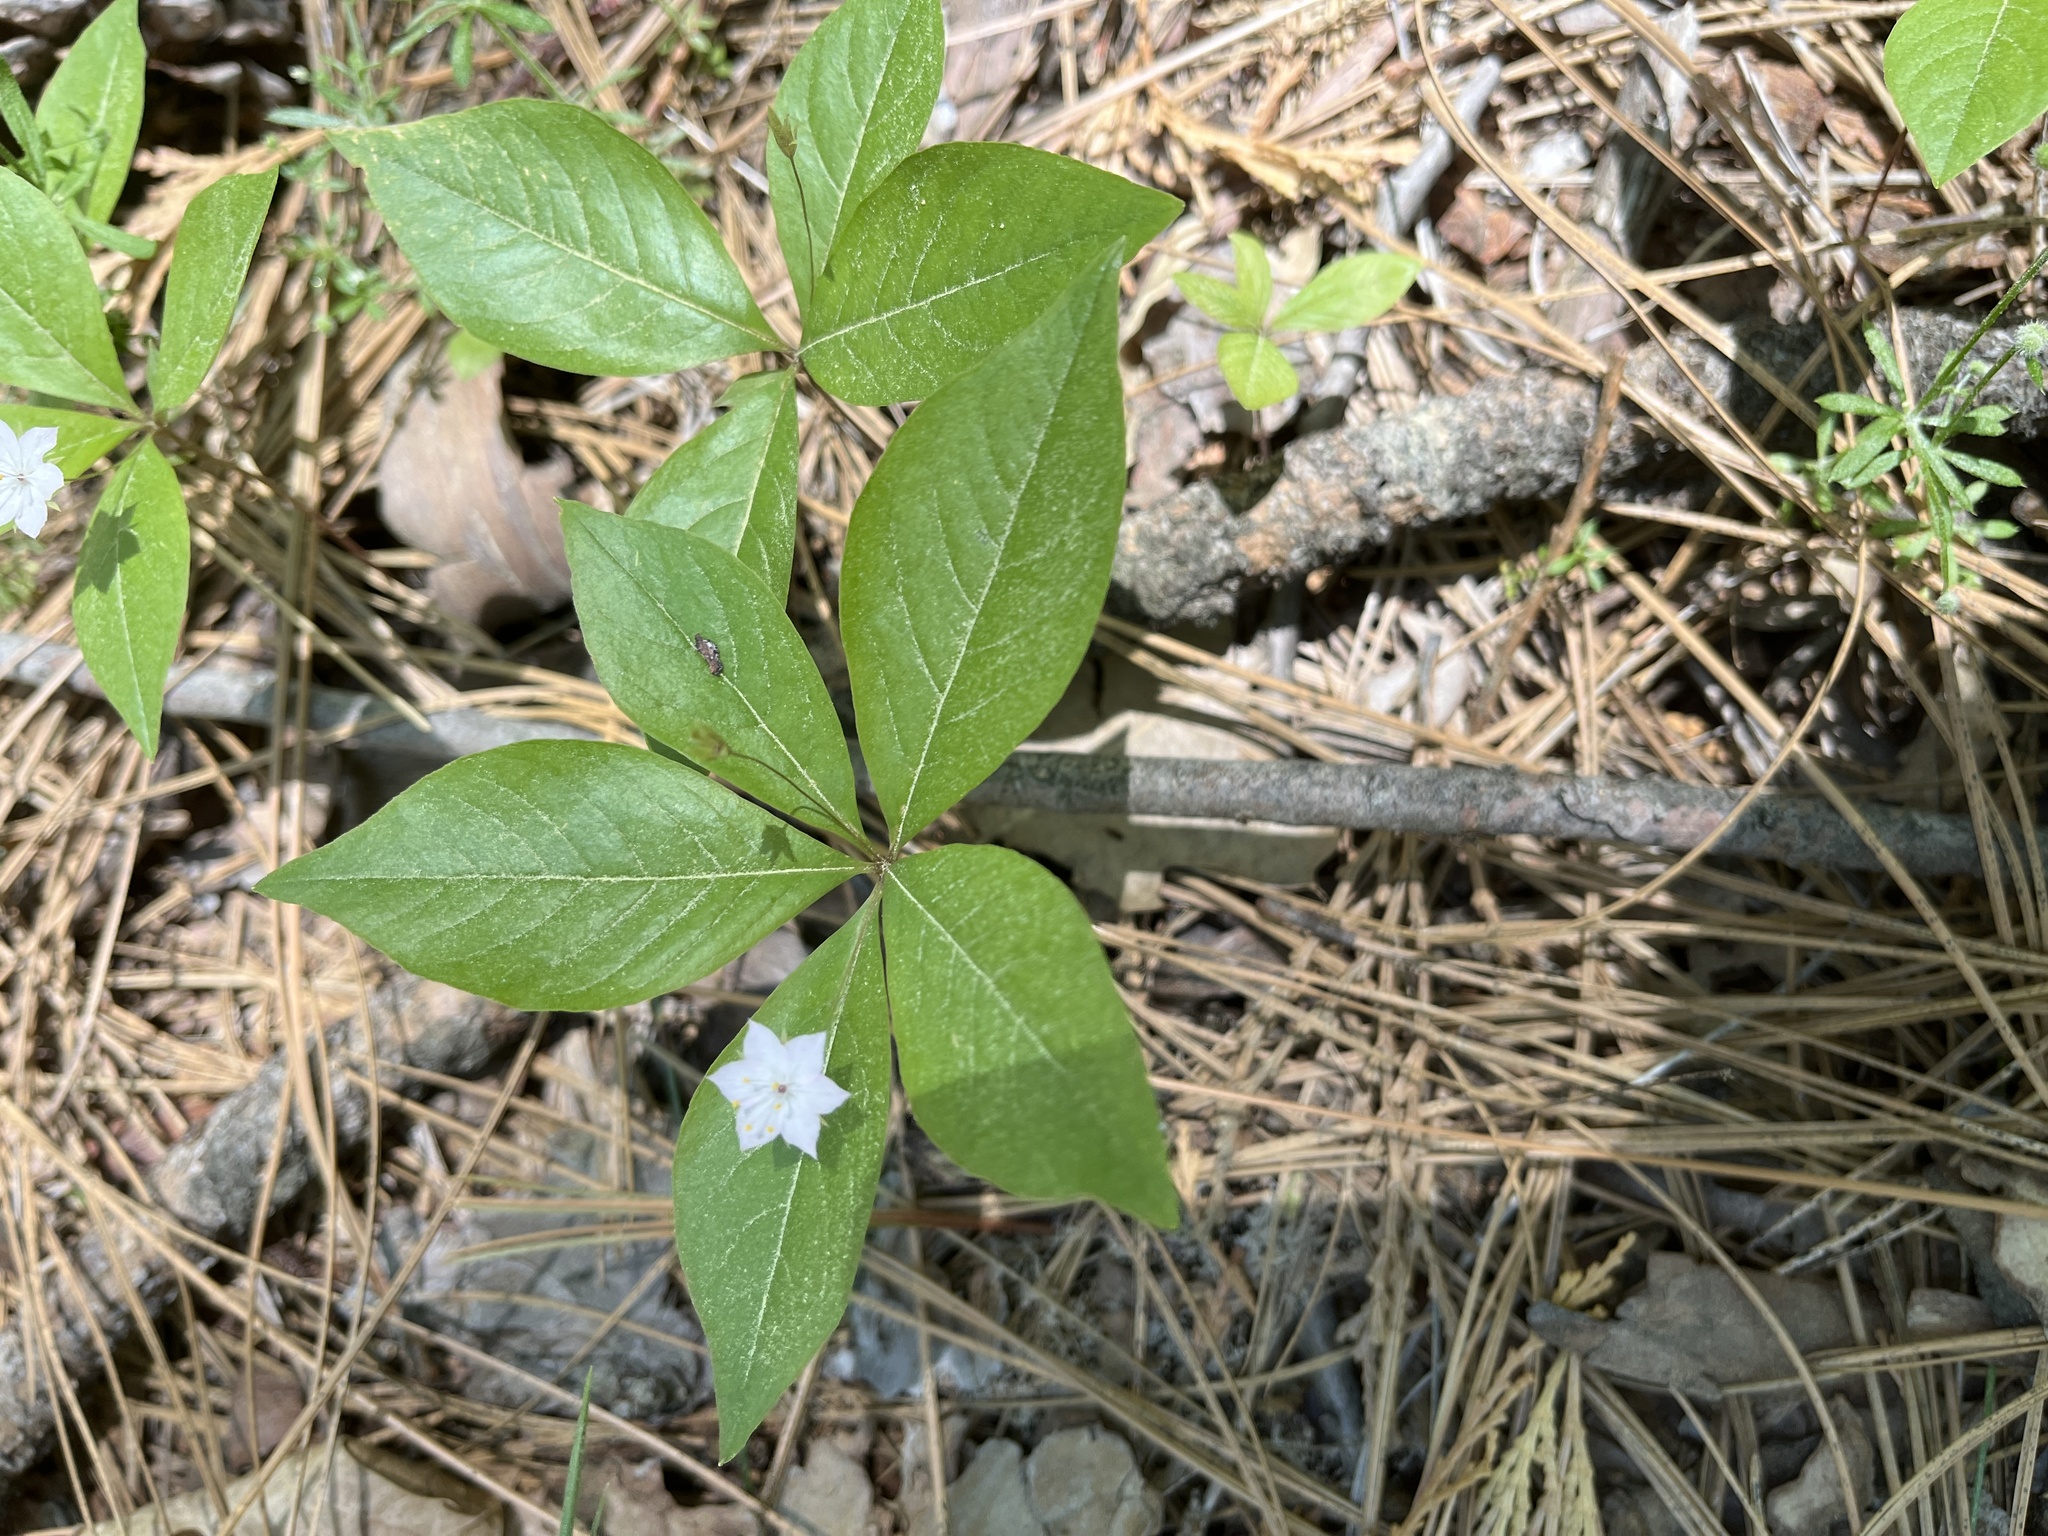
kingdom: Plantae
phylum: Tracheophyta
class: Magnoliopsida
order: Ericales
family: Primulaceae
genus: Lysimachia
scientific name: Lysimachia latifolia
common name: Pacific starflower
